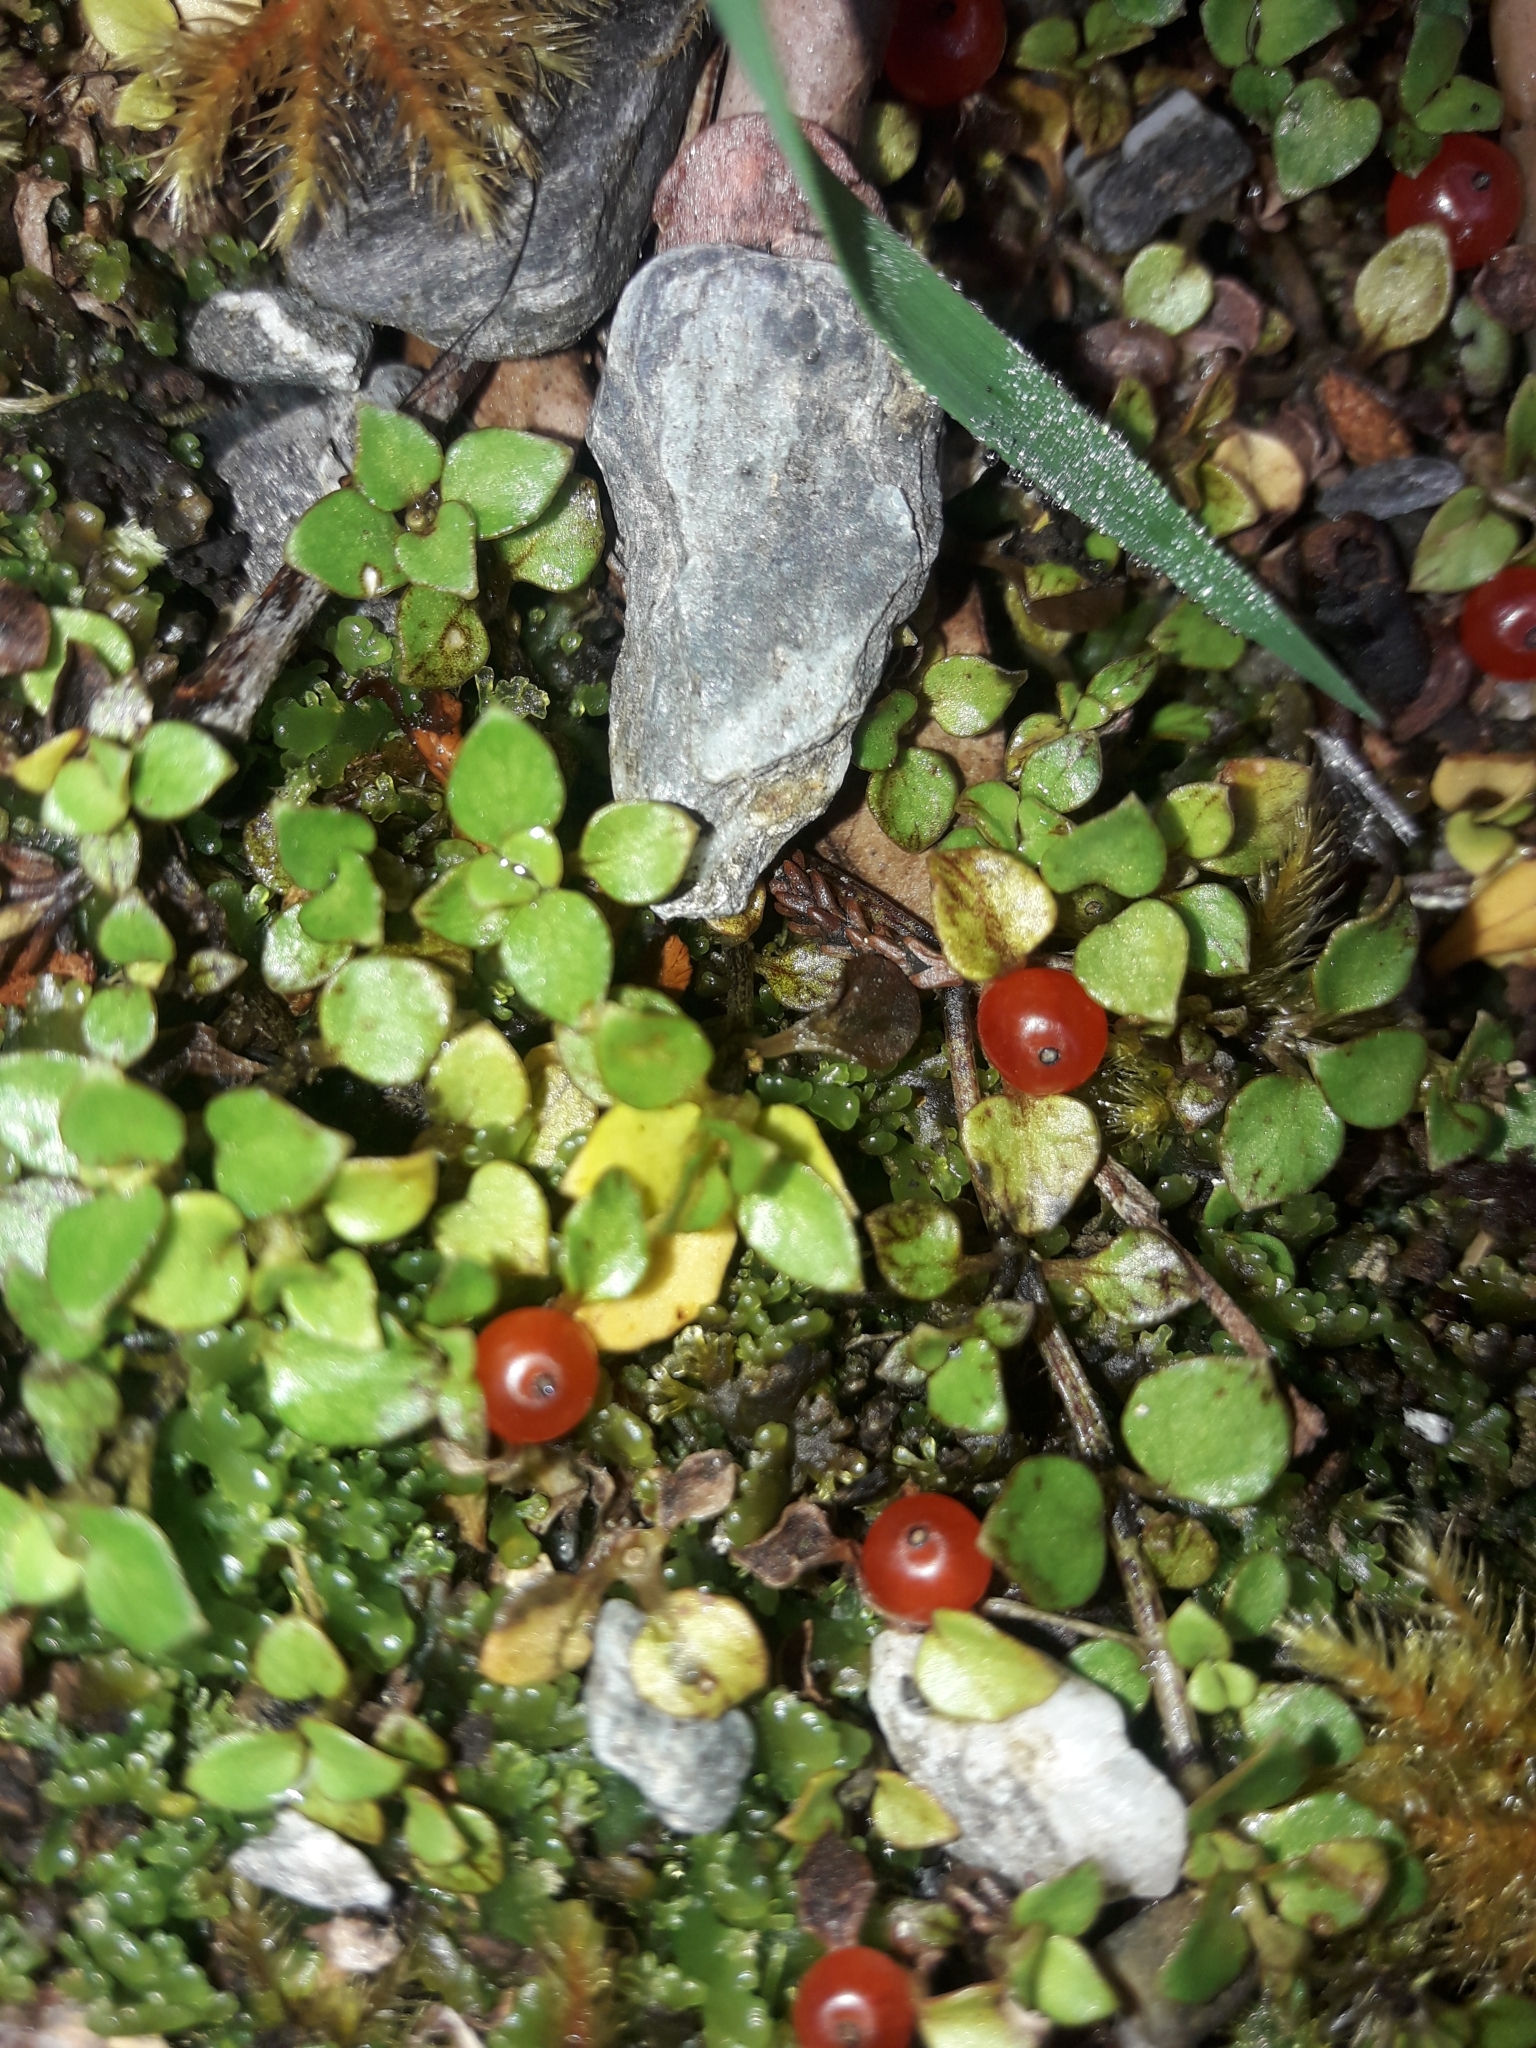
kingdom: Plantae
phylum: Tracheophyta
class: Magnoliopsida
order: Gentianales
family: Rubiaceae
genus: Nertera
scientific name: Nertera granadensis
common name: Beadplant
